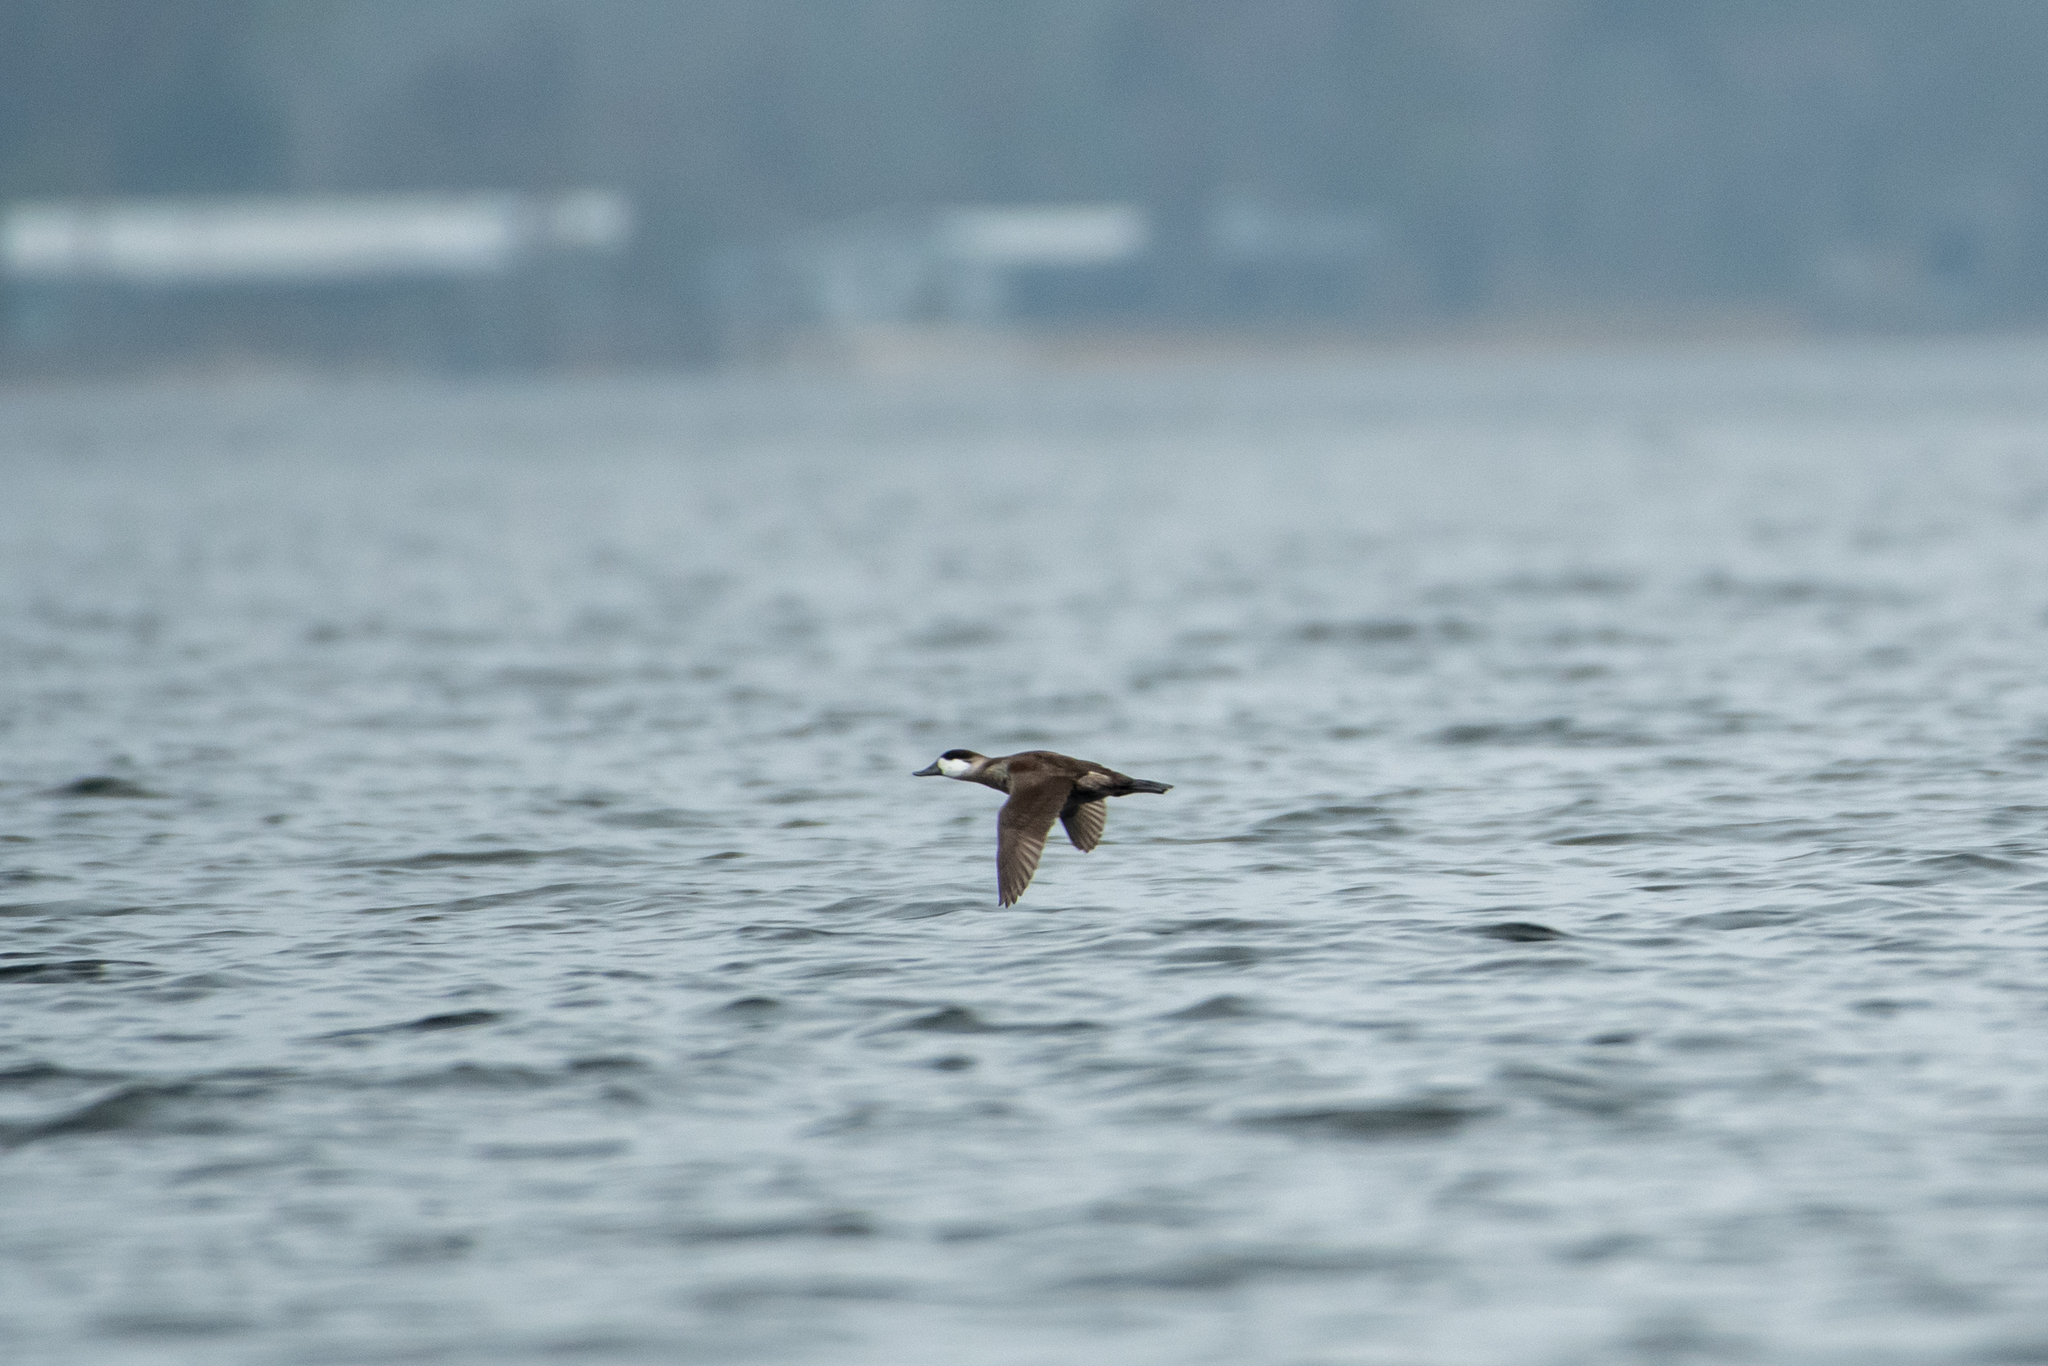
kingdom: Animalia
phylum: Chordata
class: Aves
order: Anseriformes
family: Anatidae
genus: Oxyura
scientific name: Oxyura jamaicensis
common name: Ruddy duck
